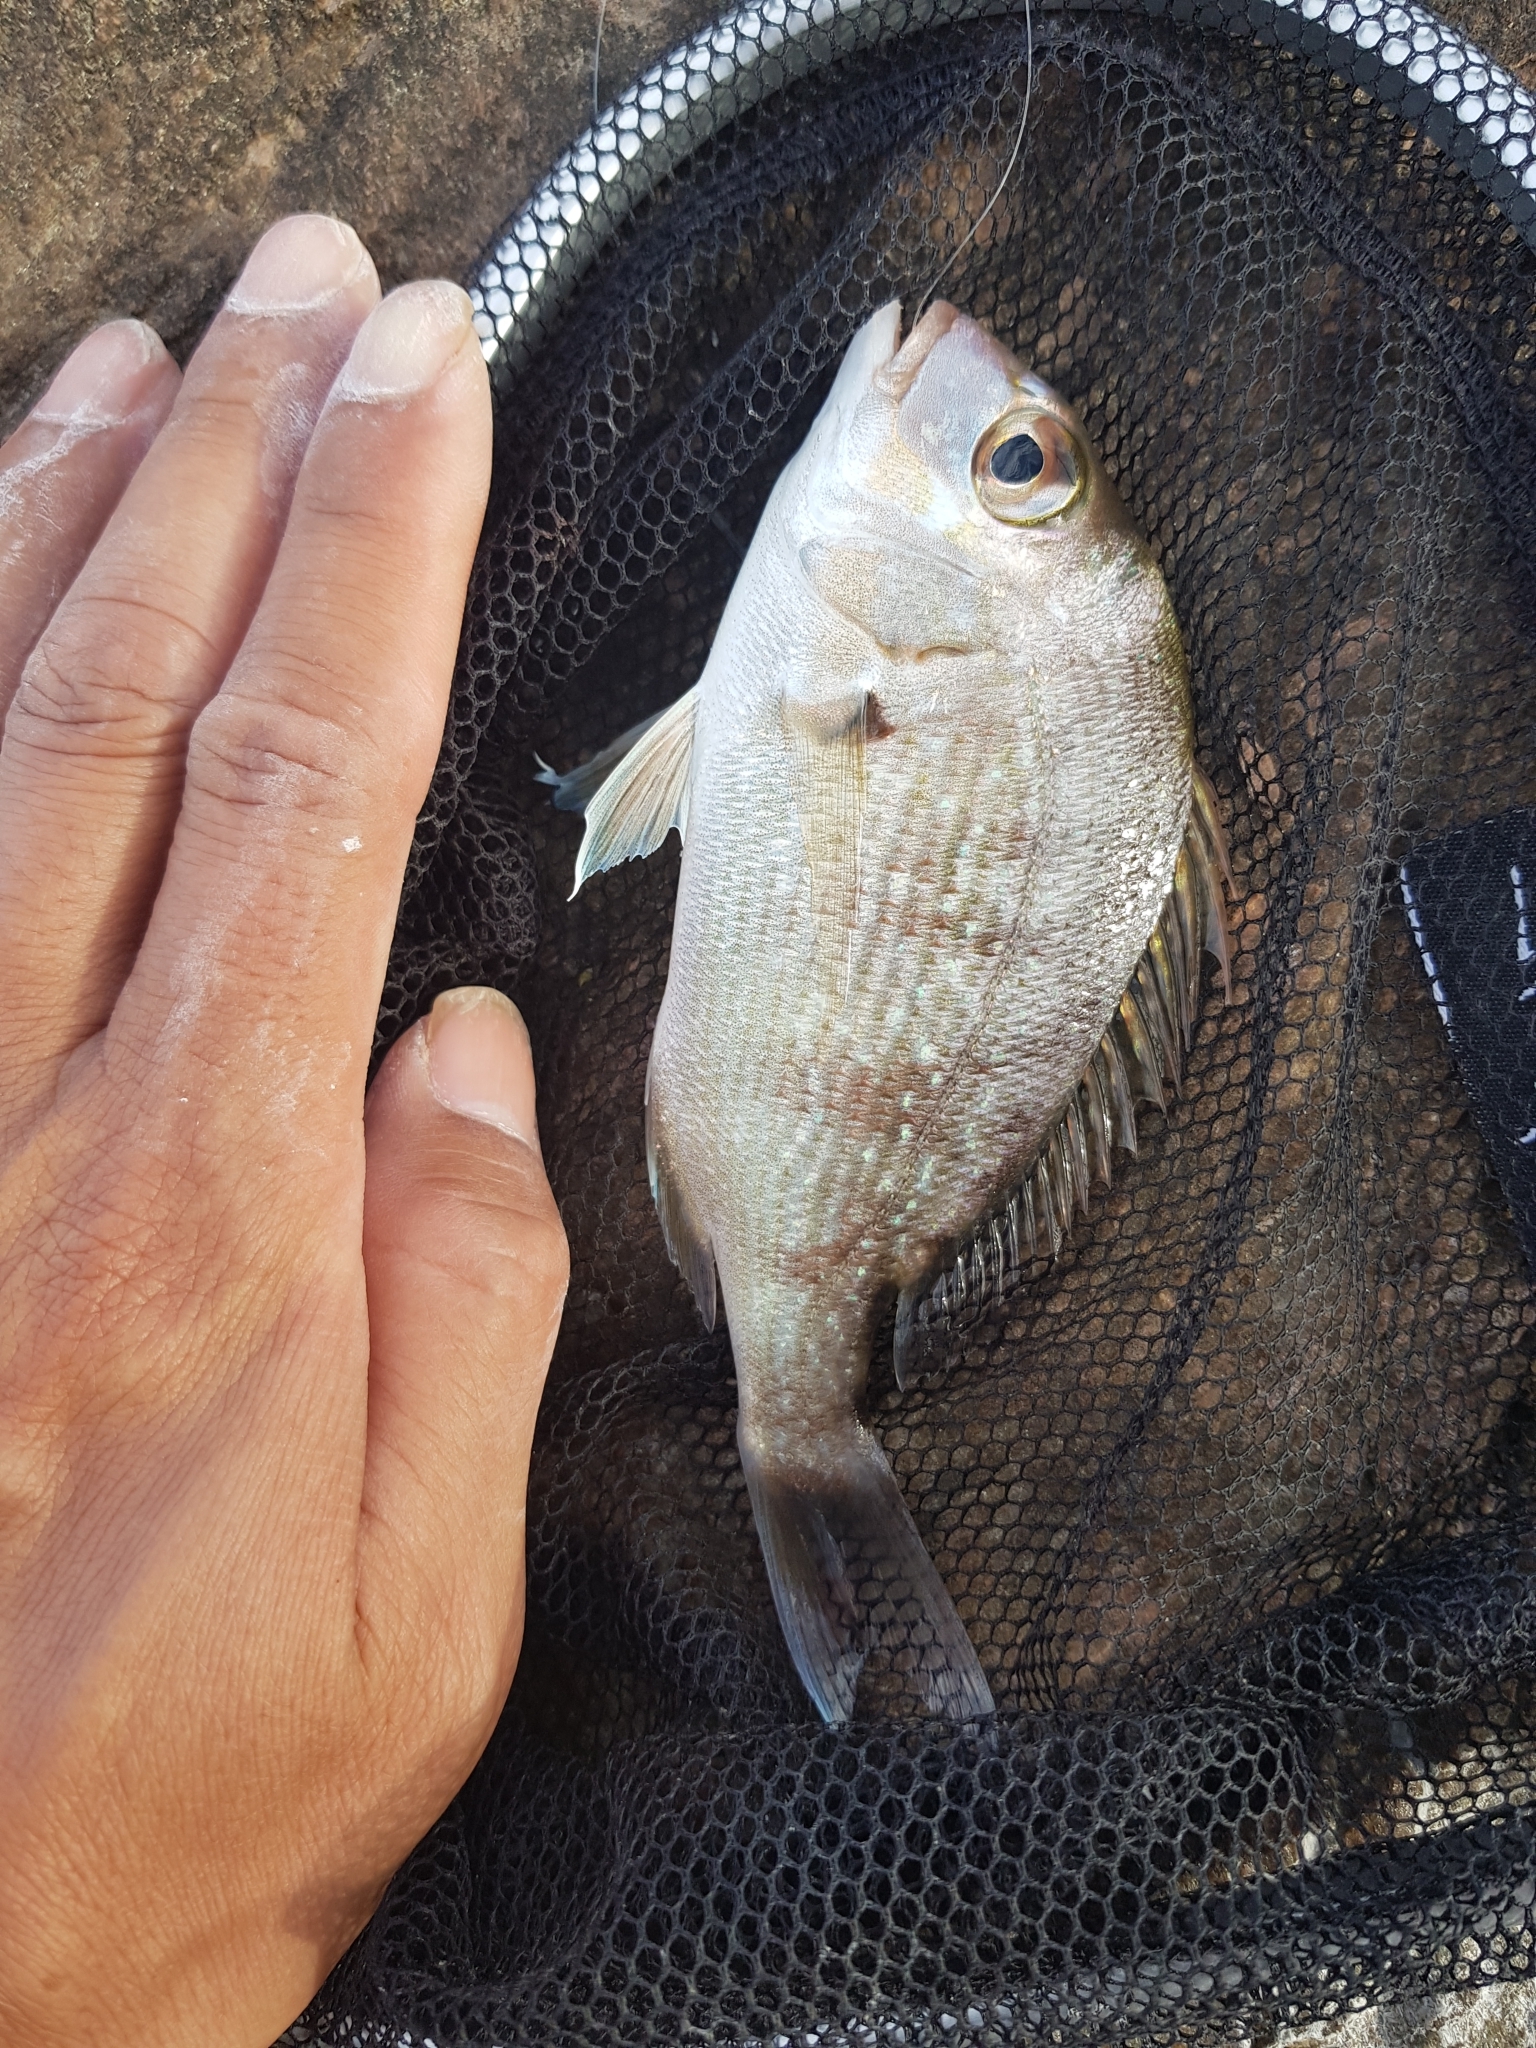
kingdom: Animalia
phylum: Chordata
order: Perciformes
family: Sparidae
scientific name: Sparidae
